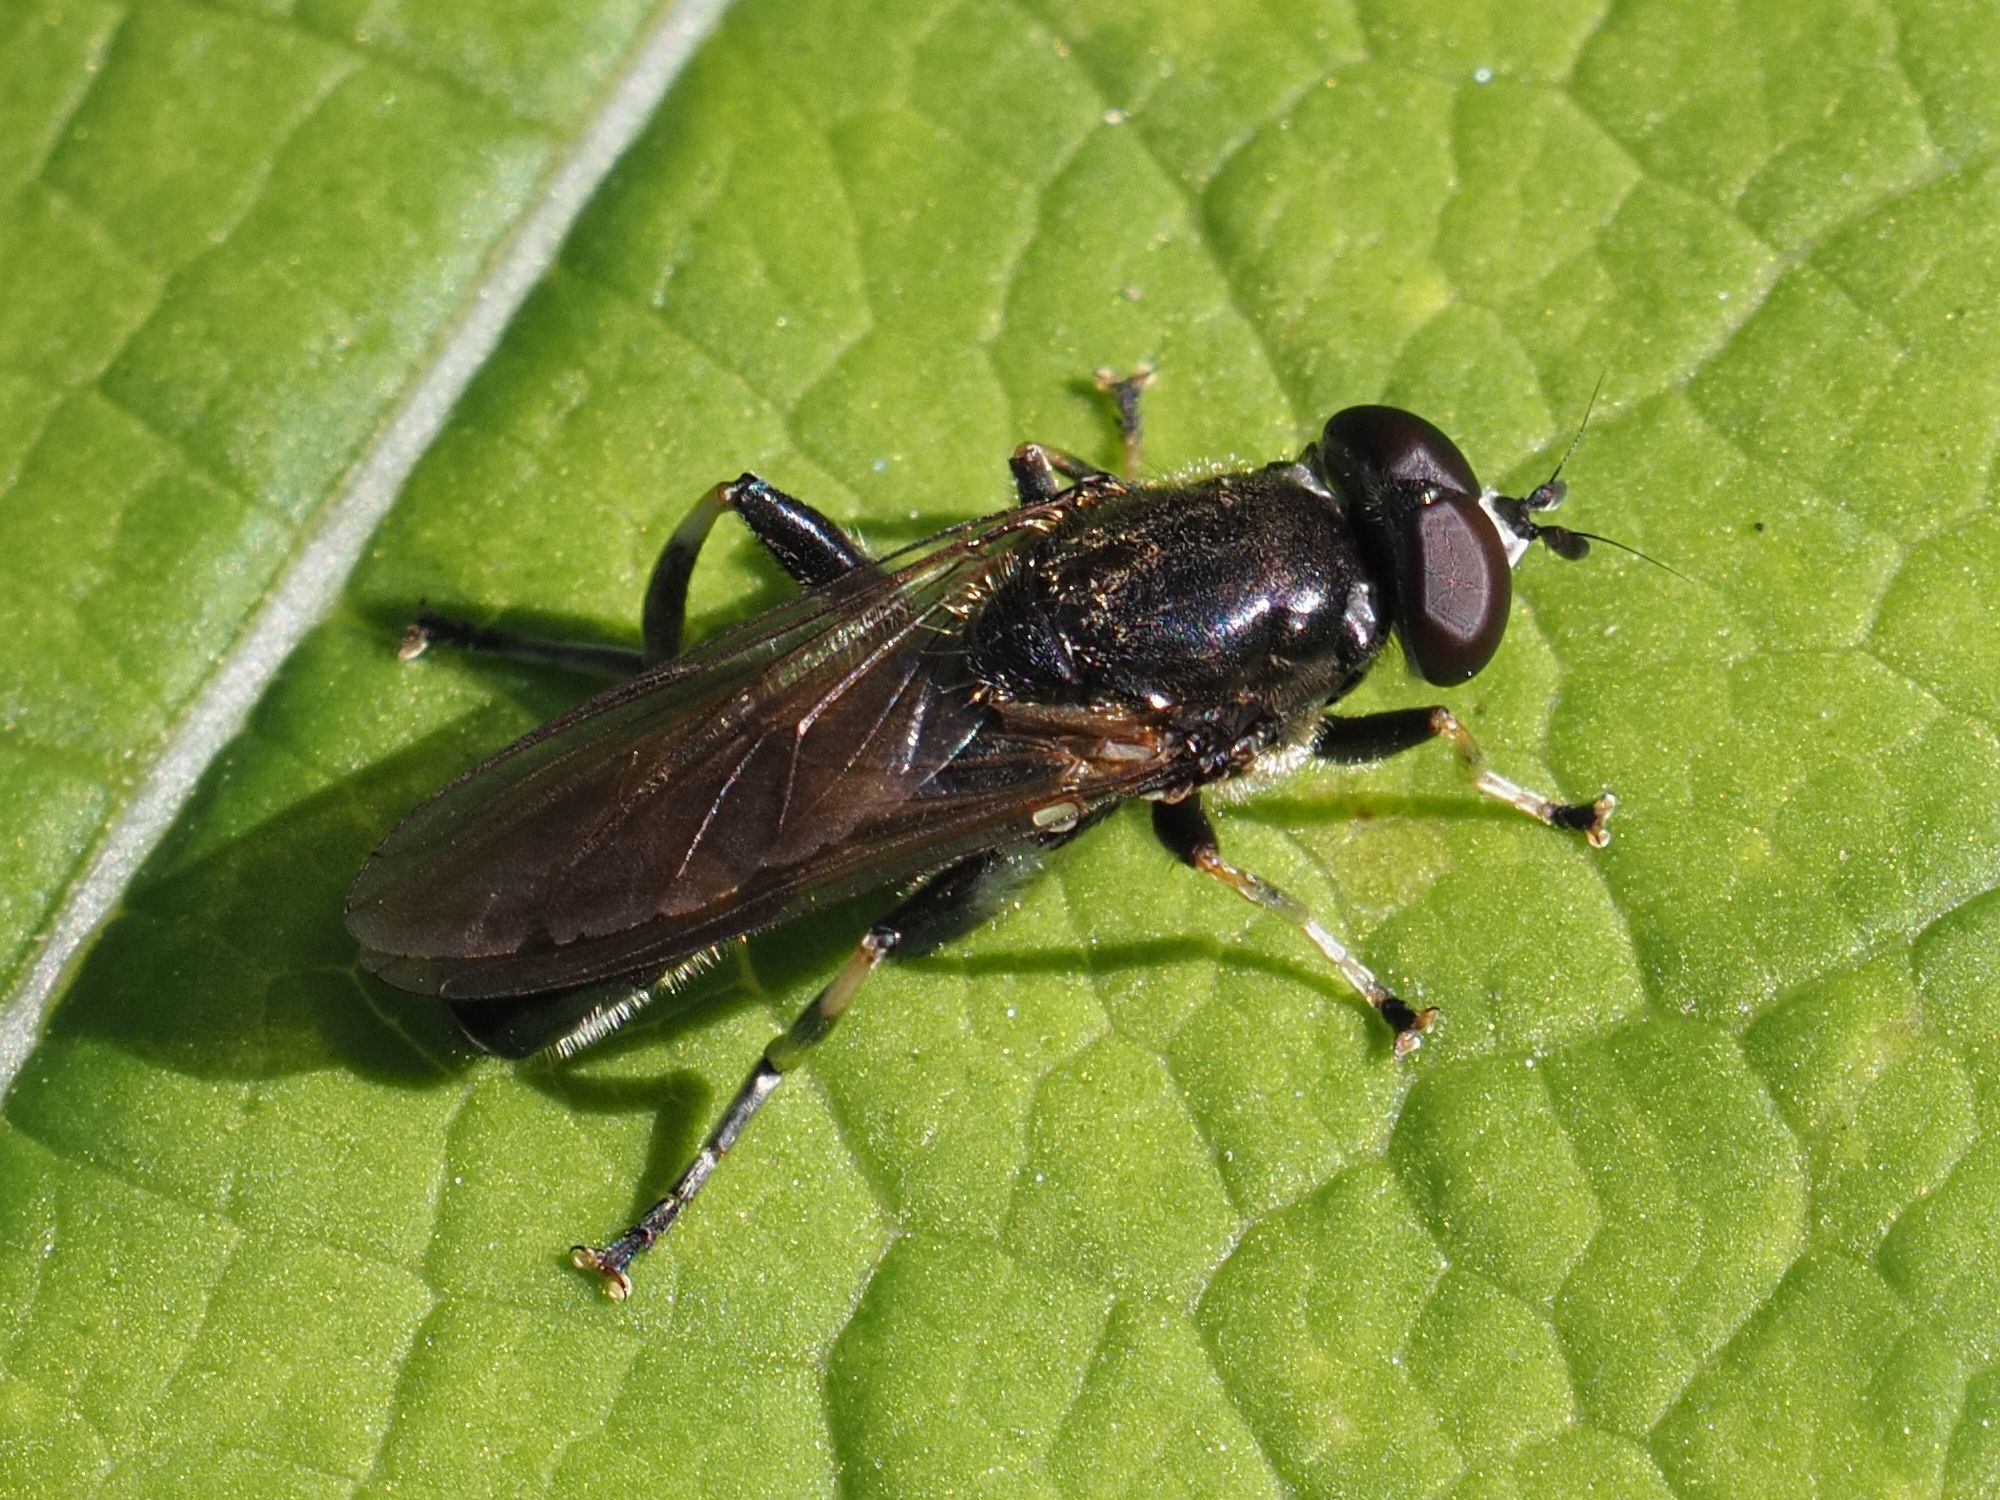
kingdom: Animalia
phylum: Arthropoda
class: Insecta
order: Diptera
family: Syrphidae
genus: Xylota
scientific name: Xylota florum
